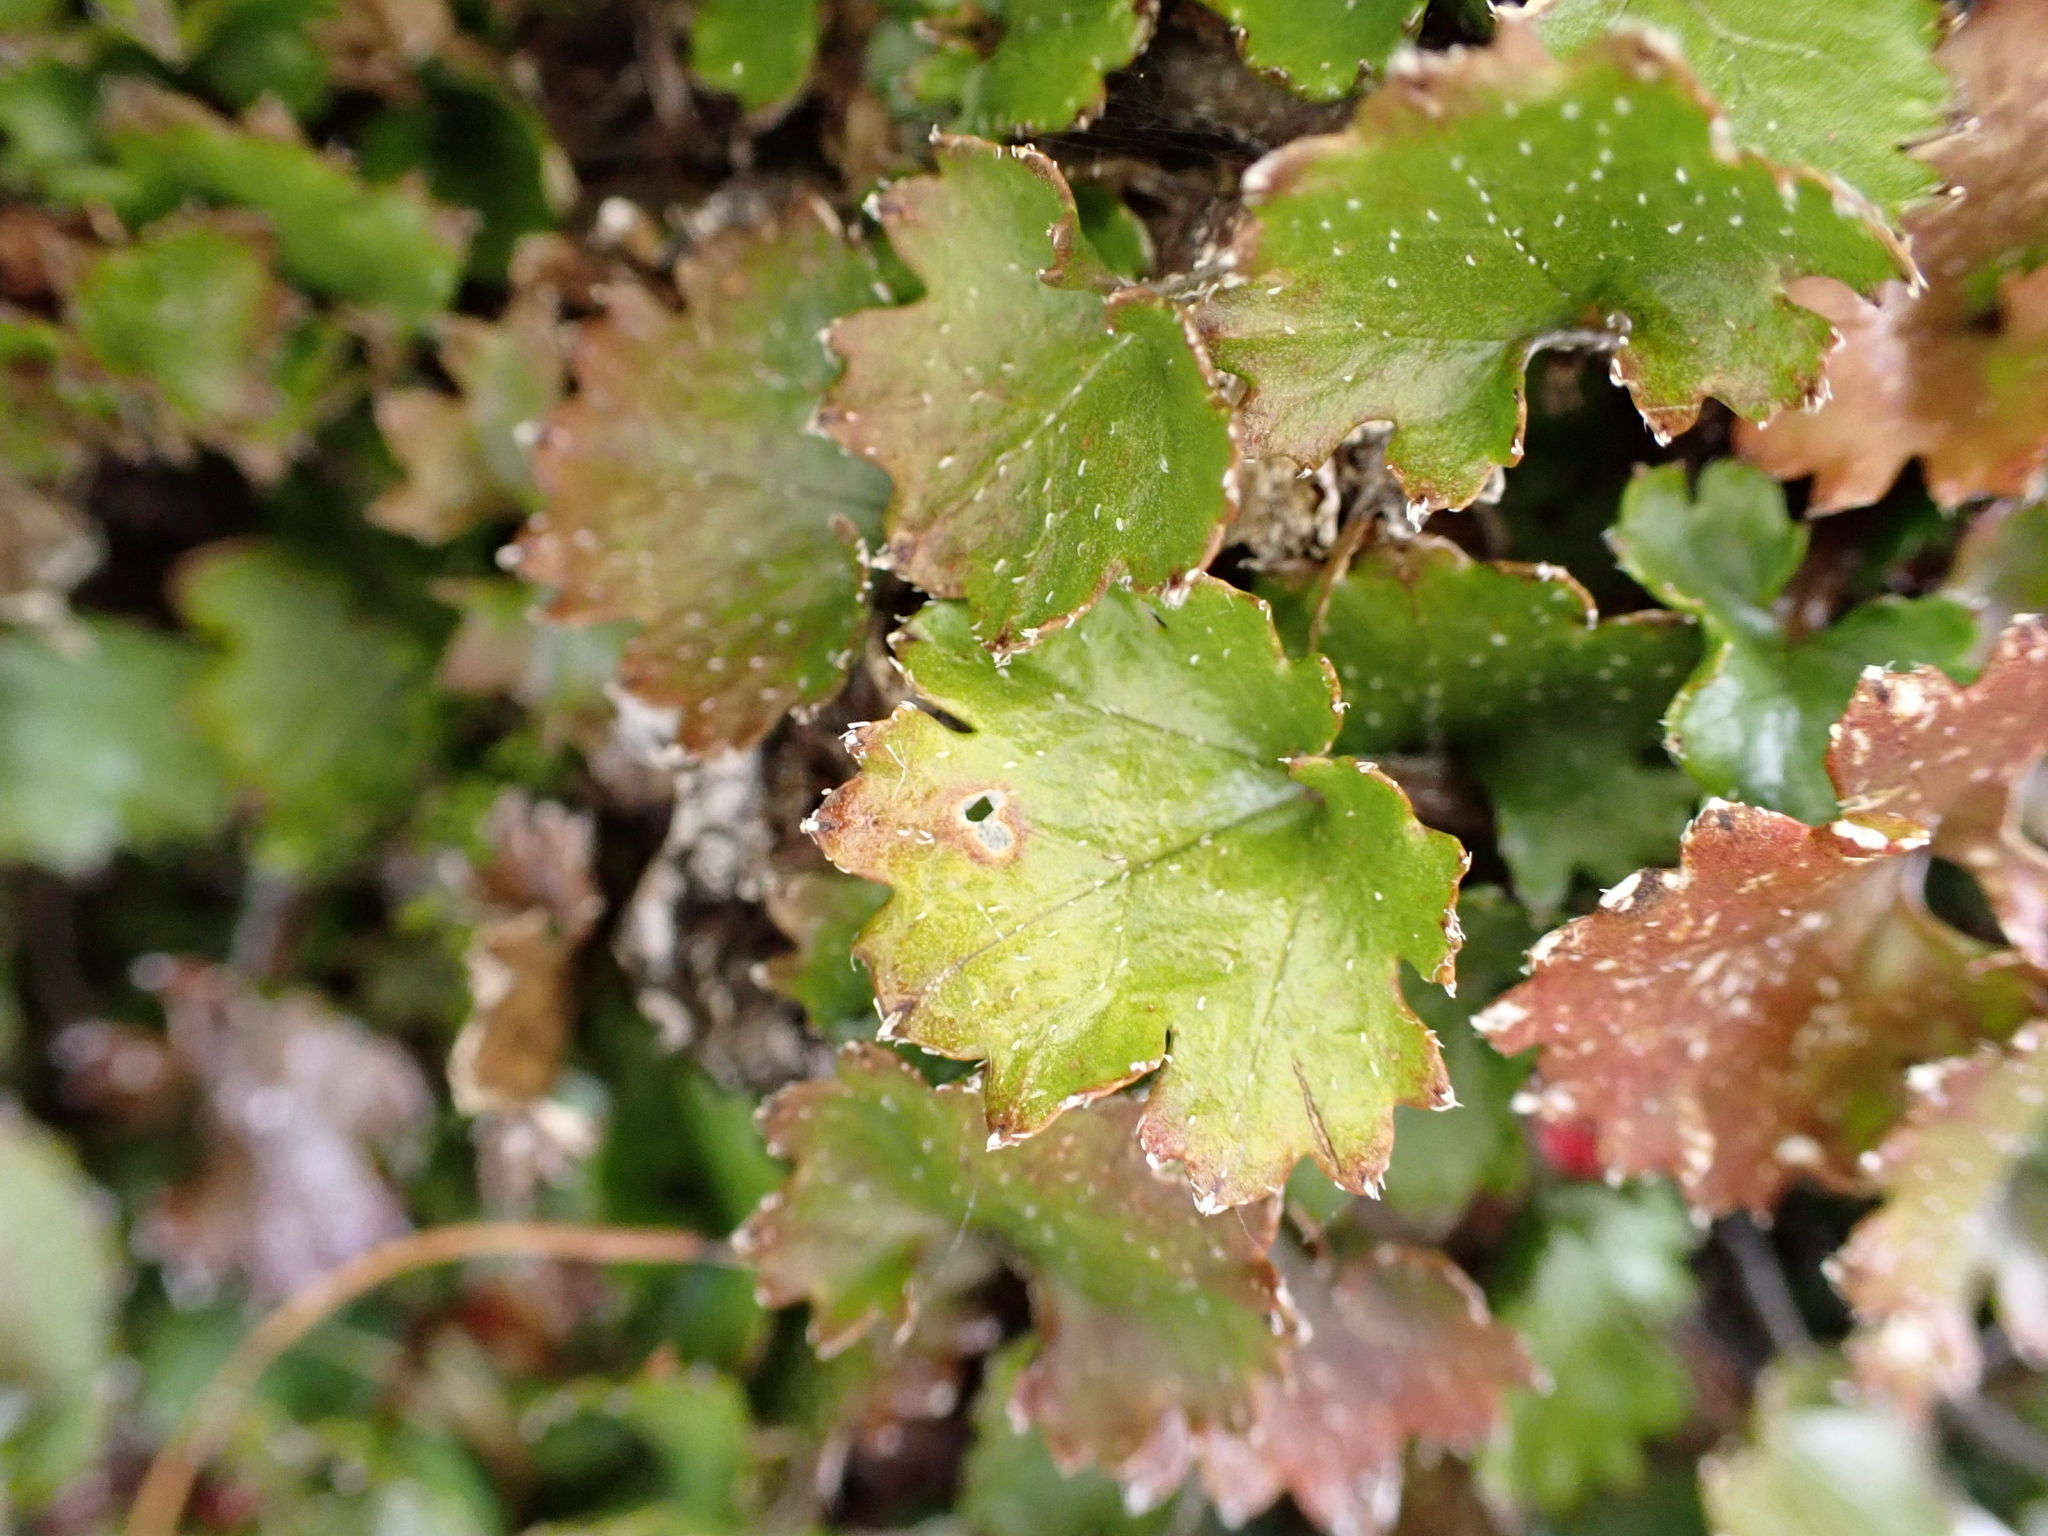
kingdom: Plantae
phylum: Tracheophyta
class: Magnoliopsida
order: Gunnerales
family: Gunneraceae
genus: Gunnera
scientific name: Gunnera monoica
